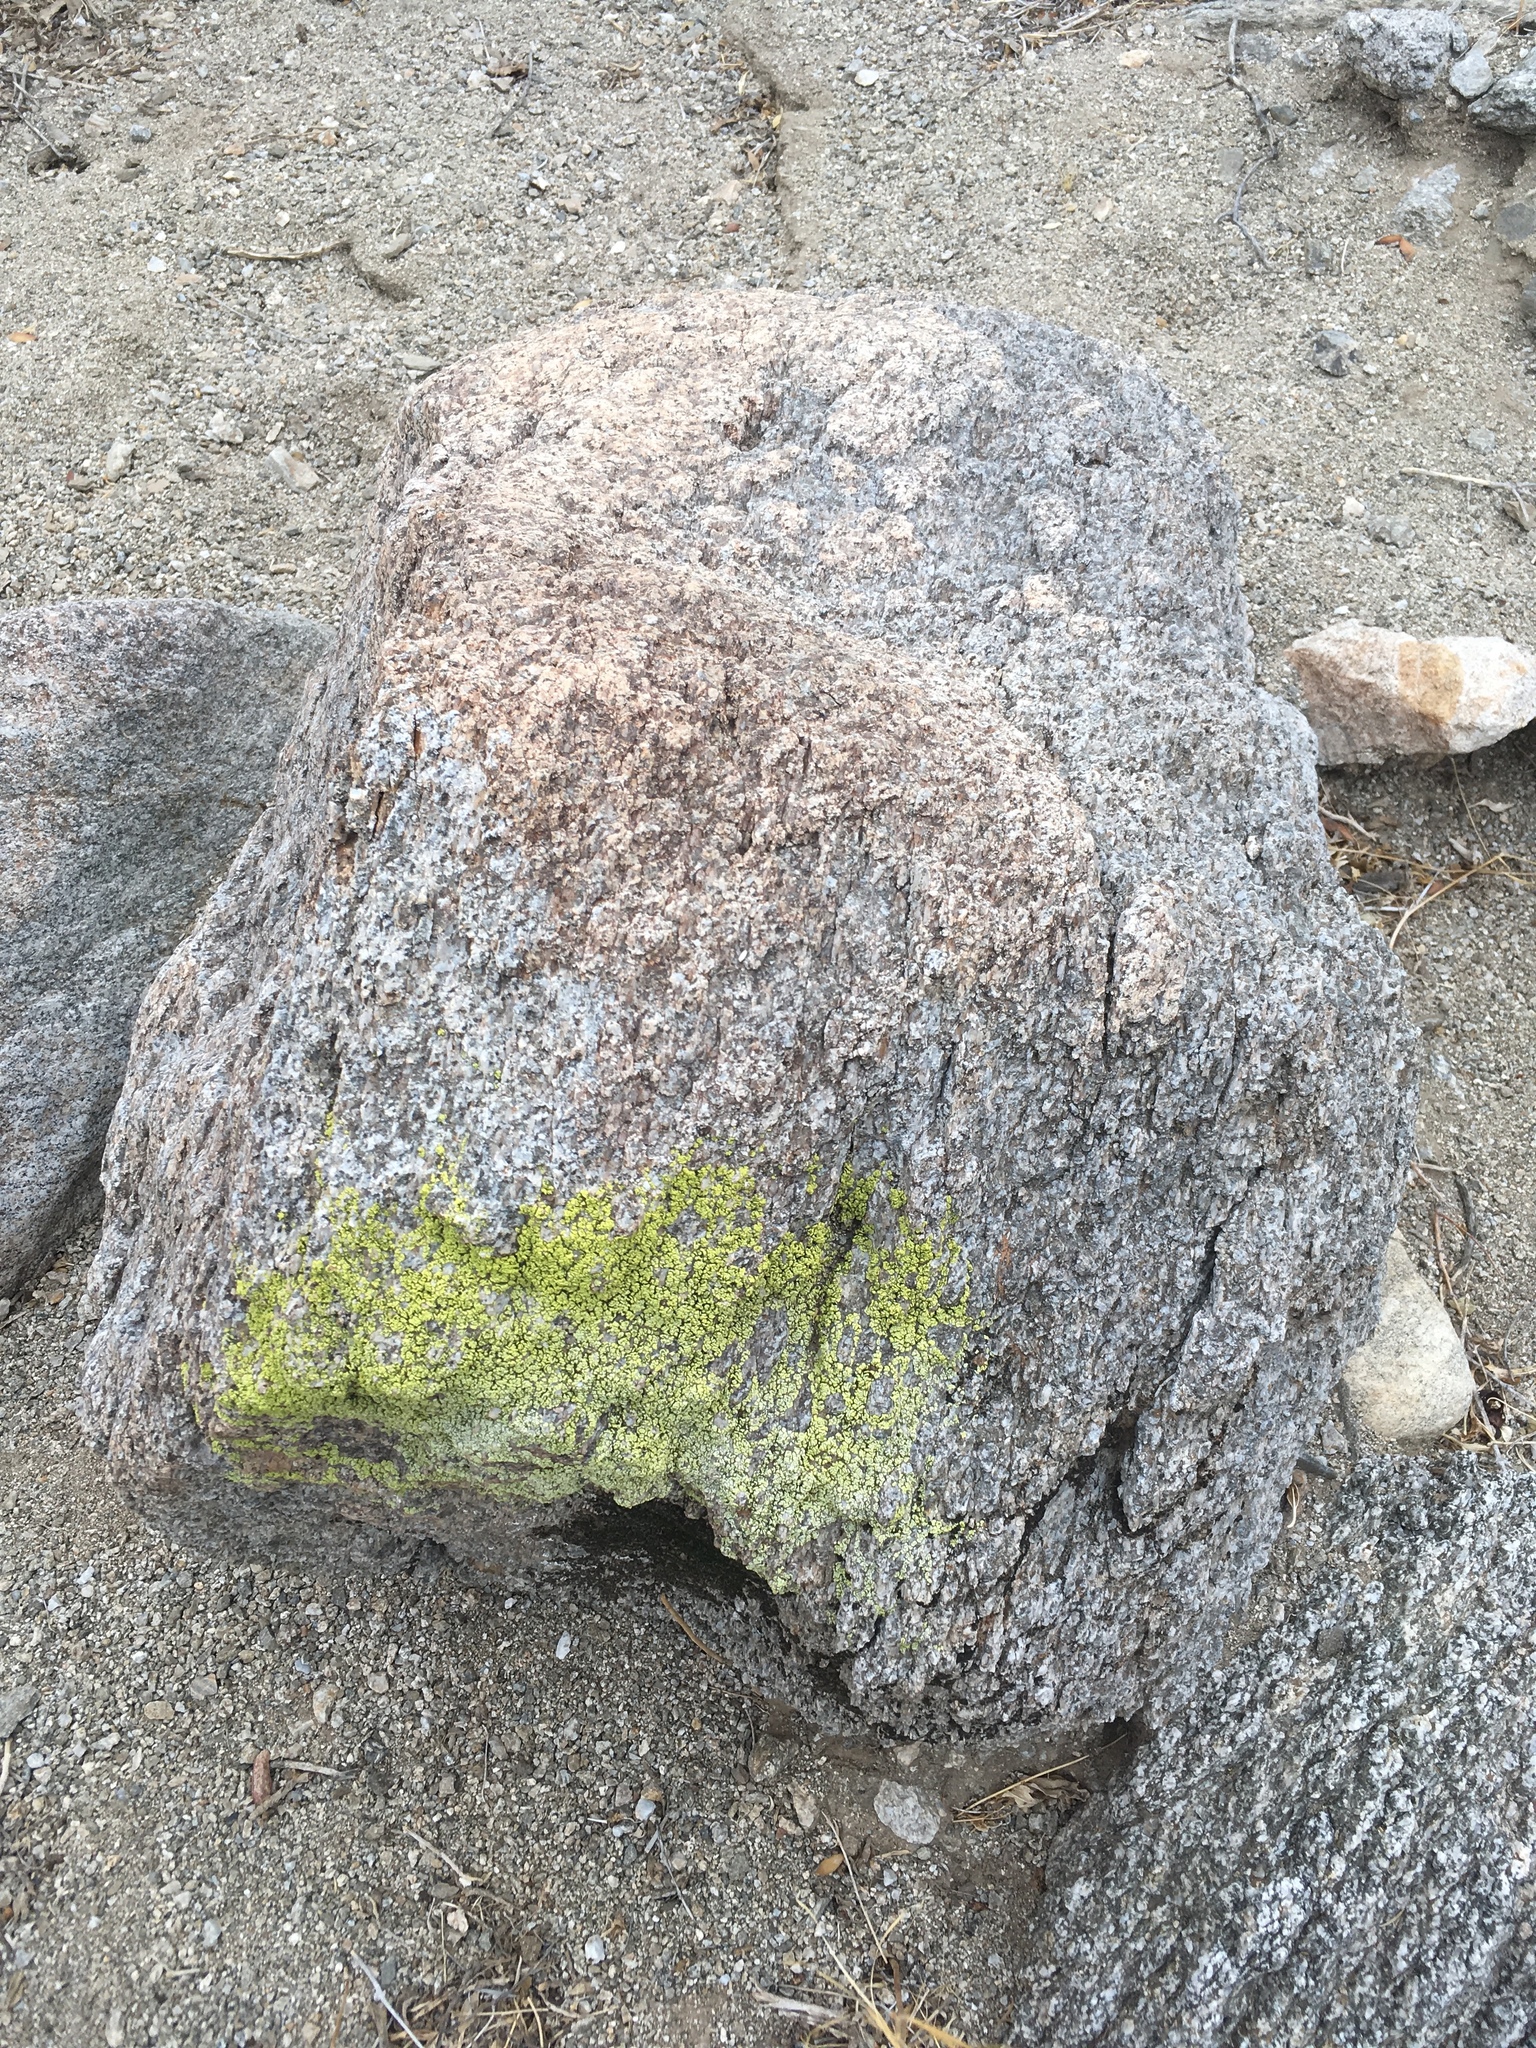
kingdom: Fungi
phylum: Ascomycota
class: Lecanoromycetes
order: Acarosporales
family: Acarosporaceae
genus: Acarospora
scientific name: Acarospora socialis
